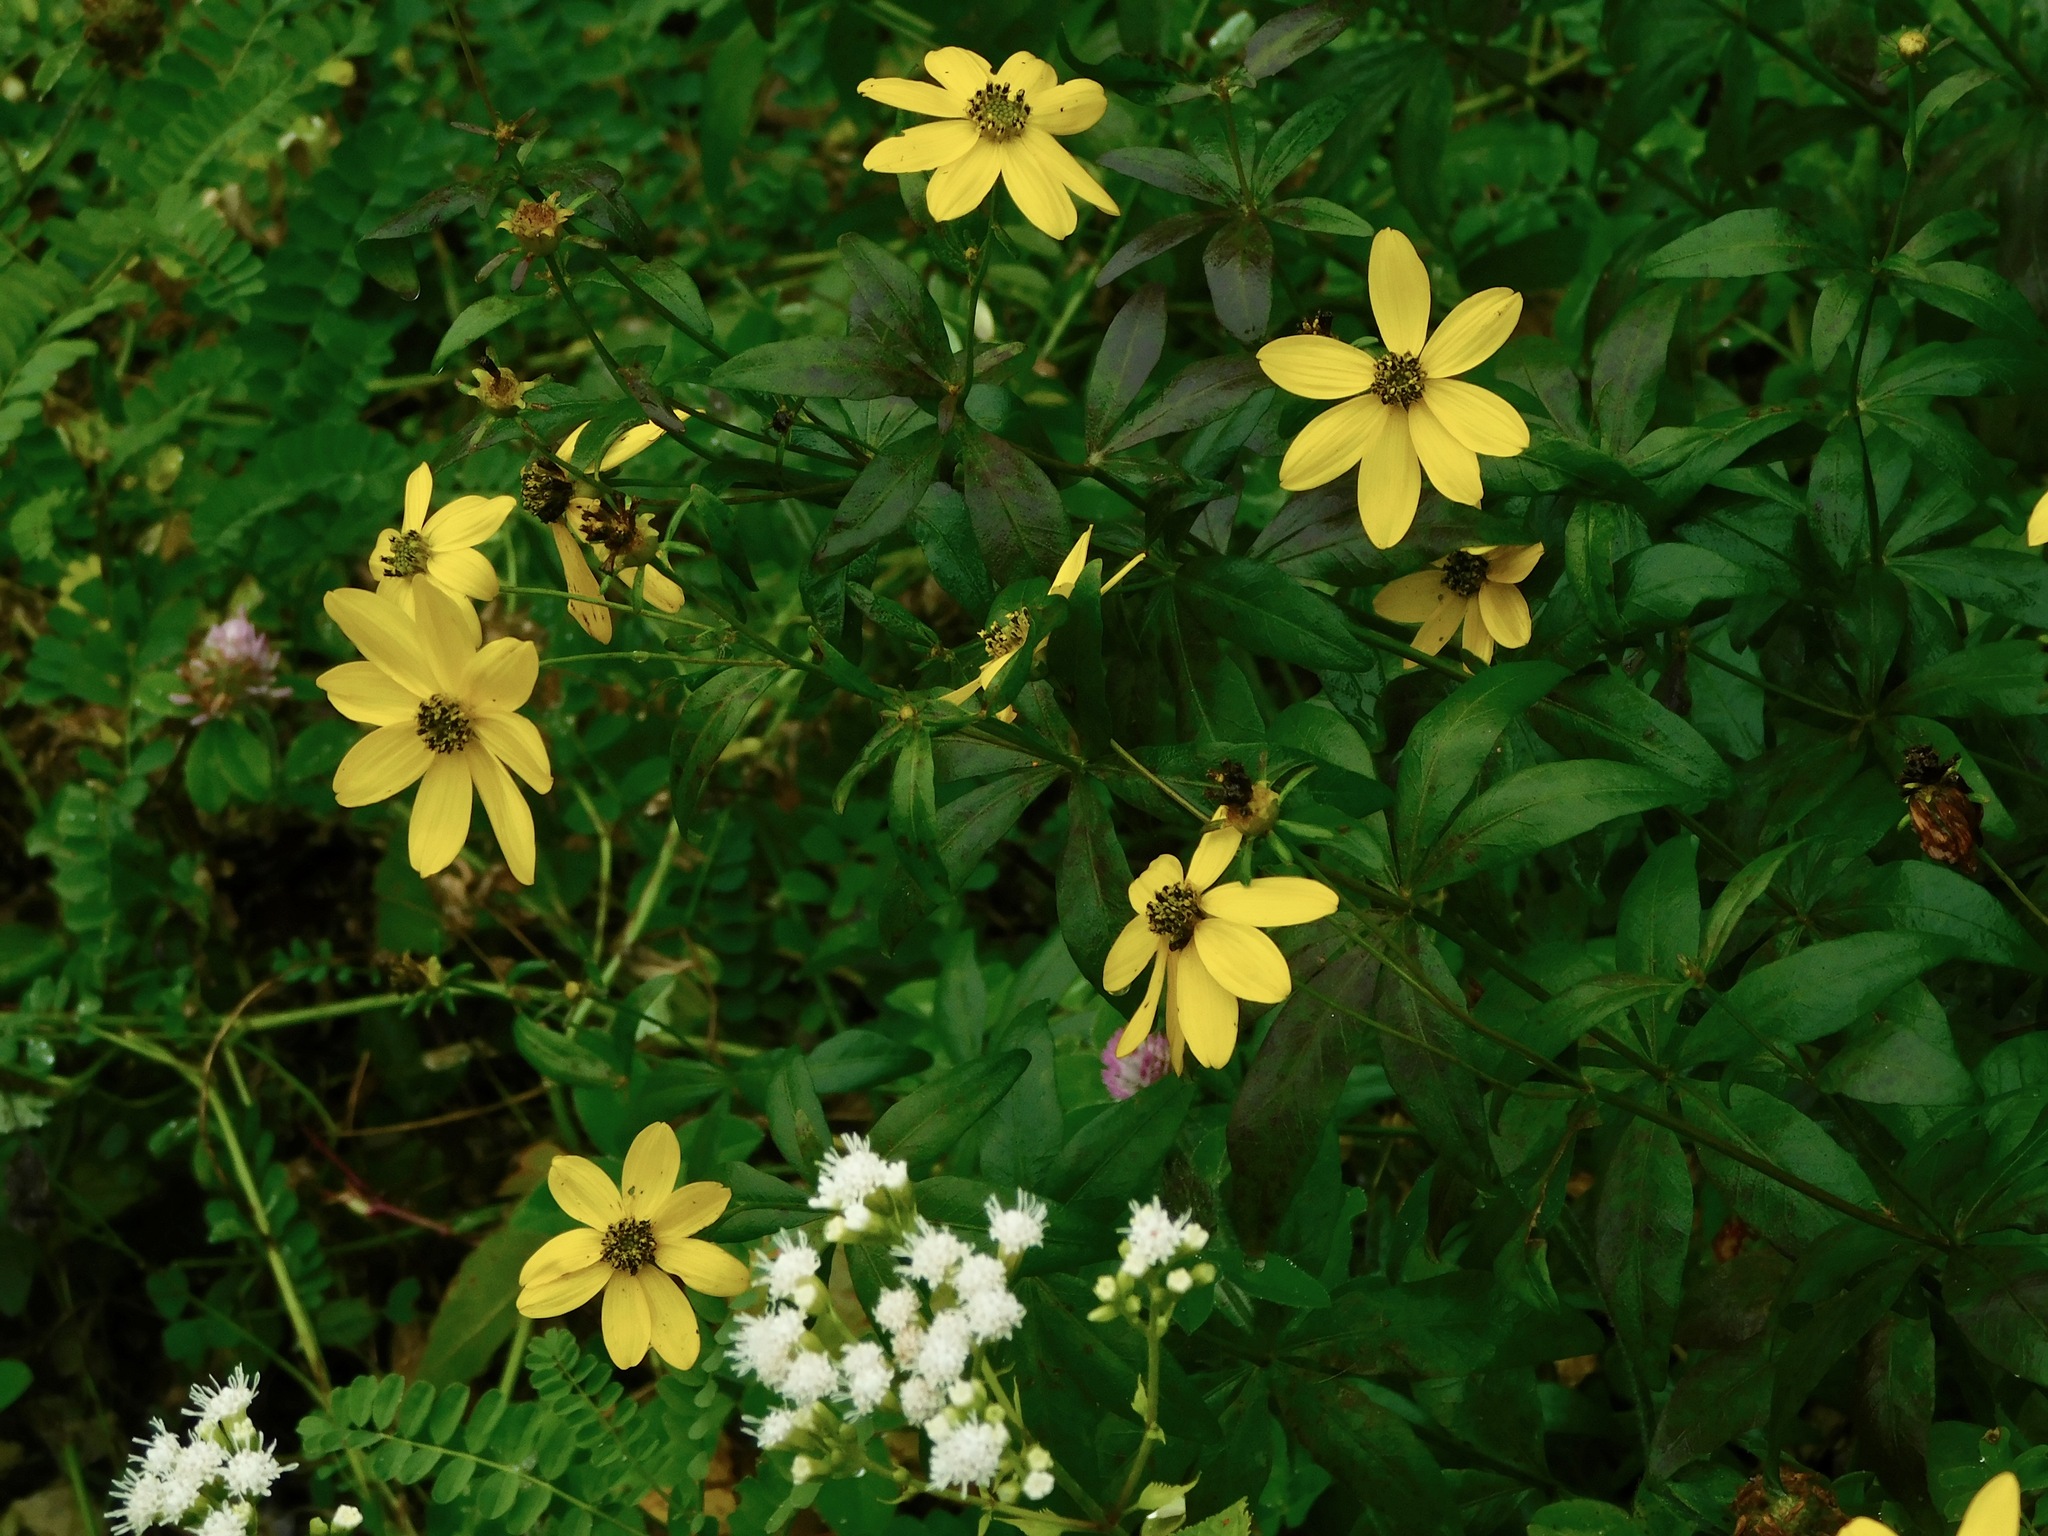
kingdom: Plantae
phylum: Tracheophyta
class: Magnoliopsida
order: Asterales
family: Asteraceae
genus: Coreopsis
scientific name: Coreopsis major
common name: Forest tickseed
